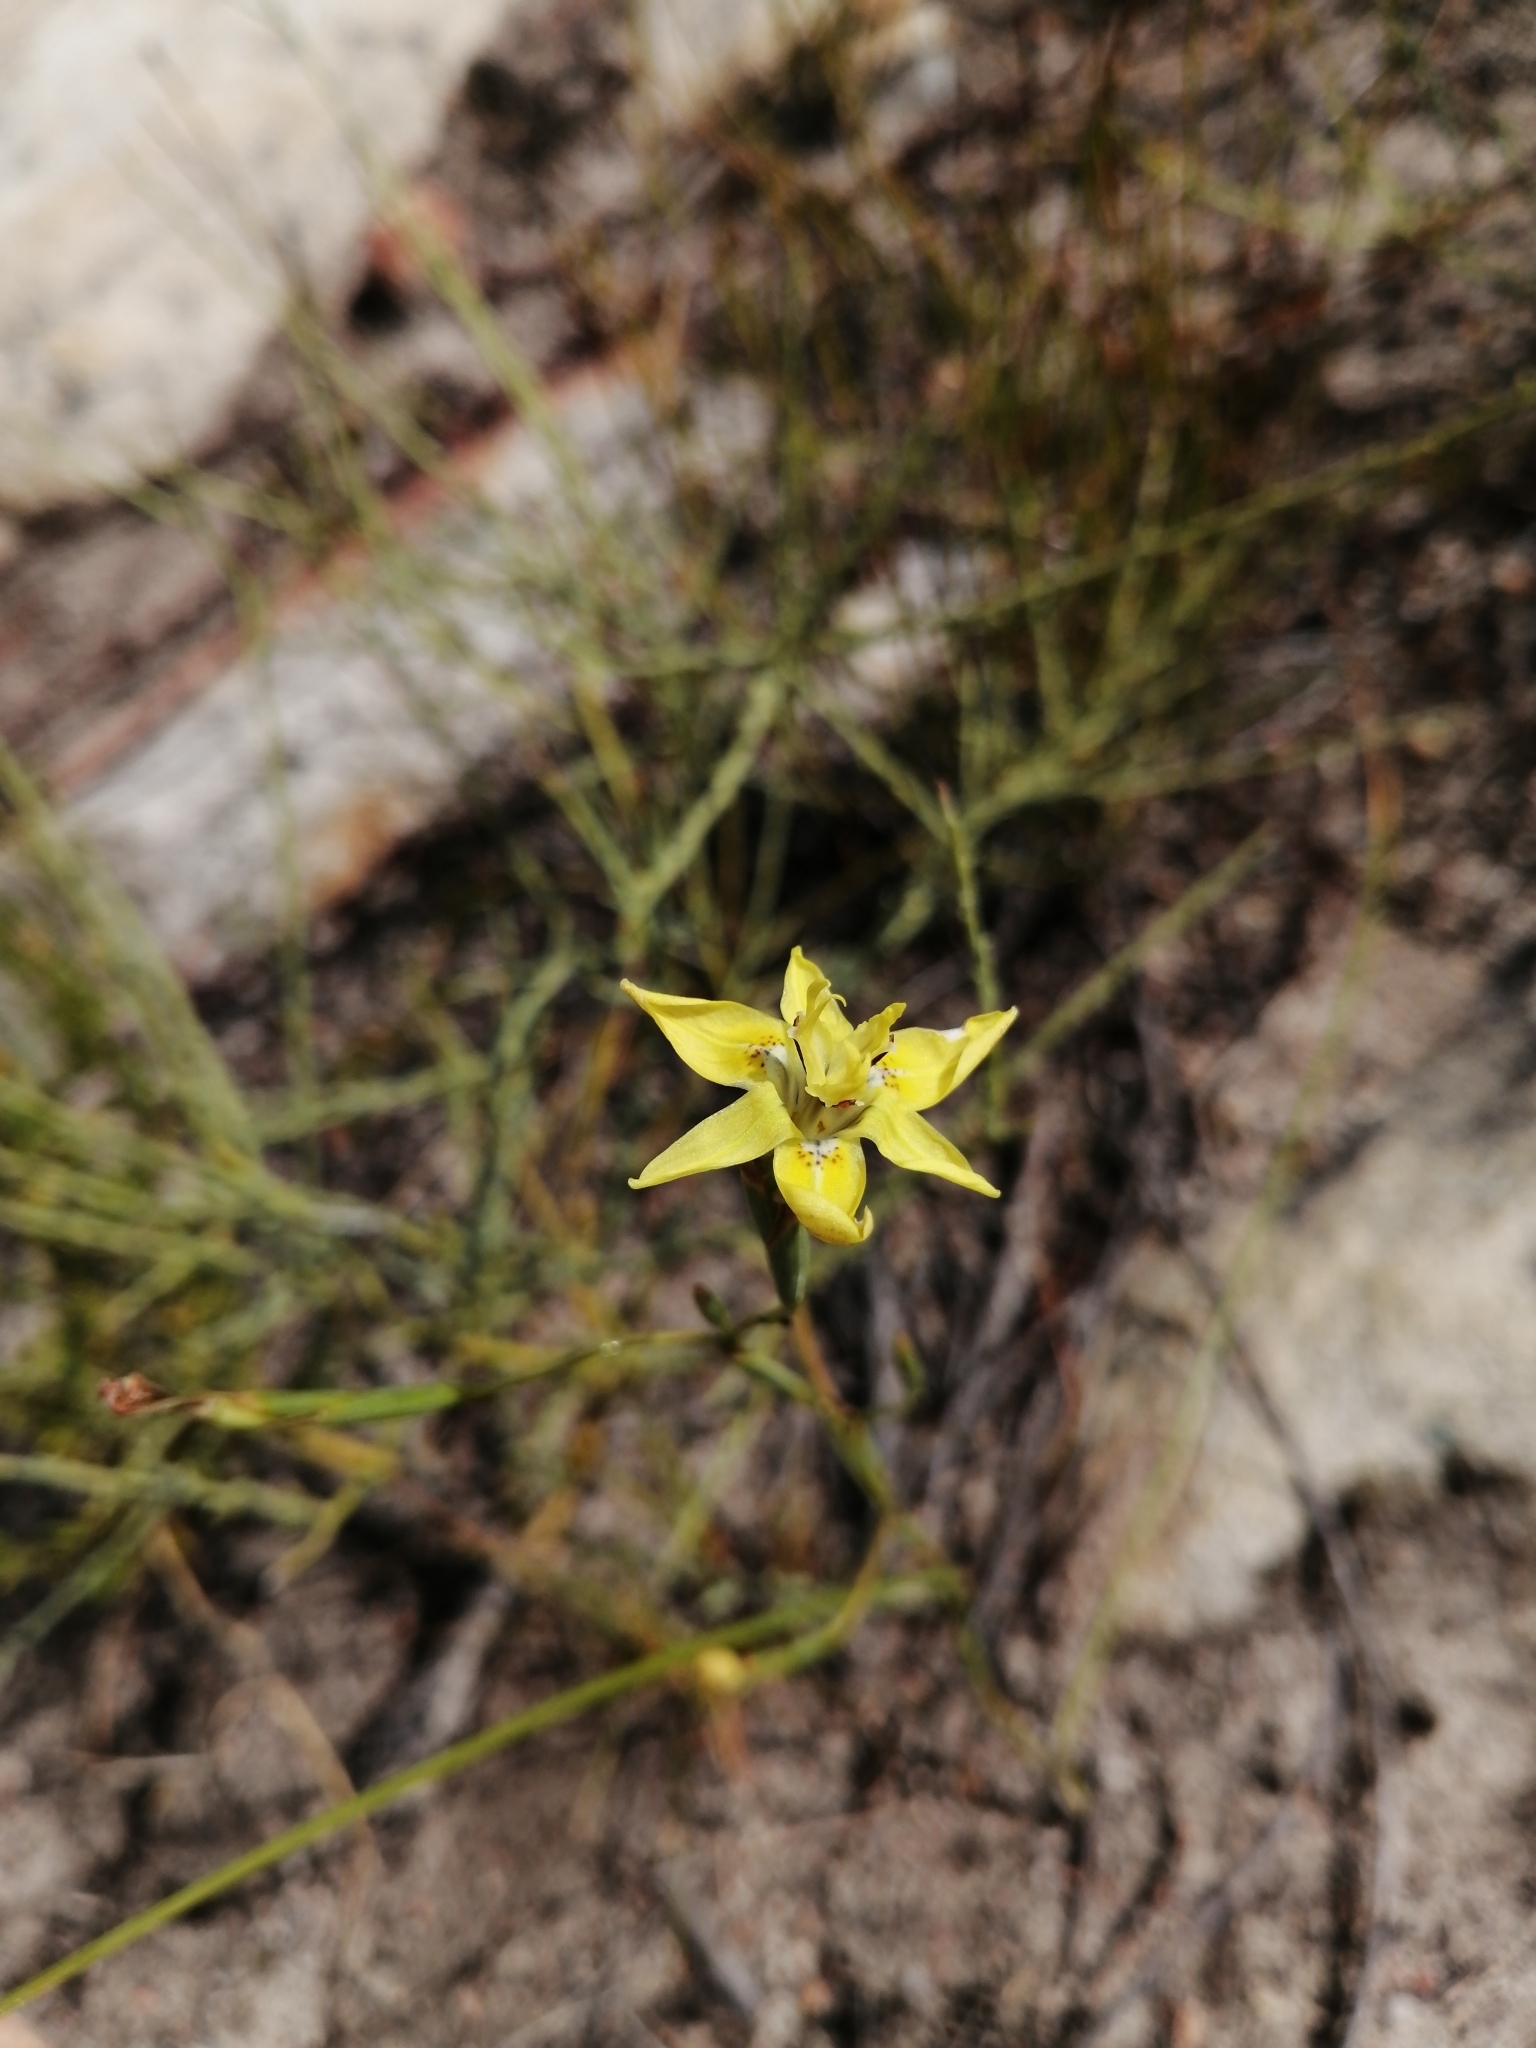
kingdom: Plantae
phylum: Tracheophyta
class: Liliopsida
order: Asparagales
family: Iridaceae
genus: Moraea
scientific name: Moraea bituminosa
